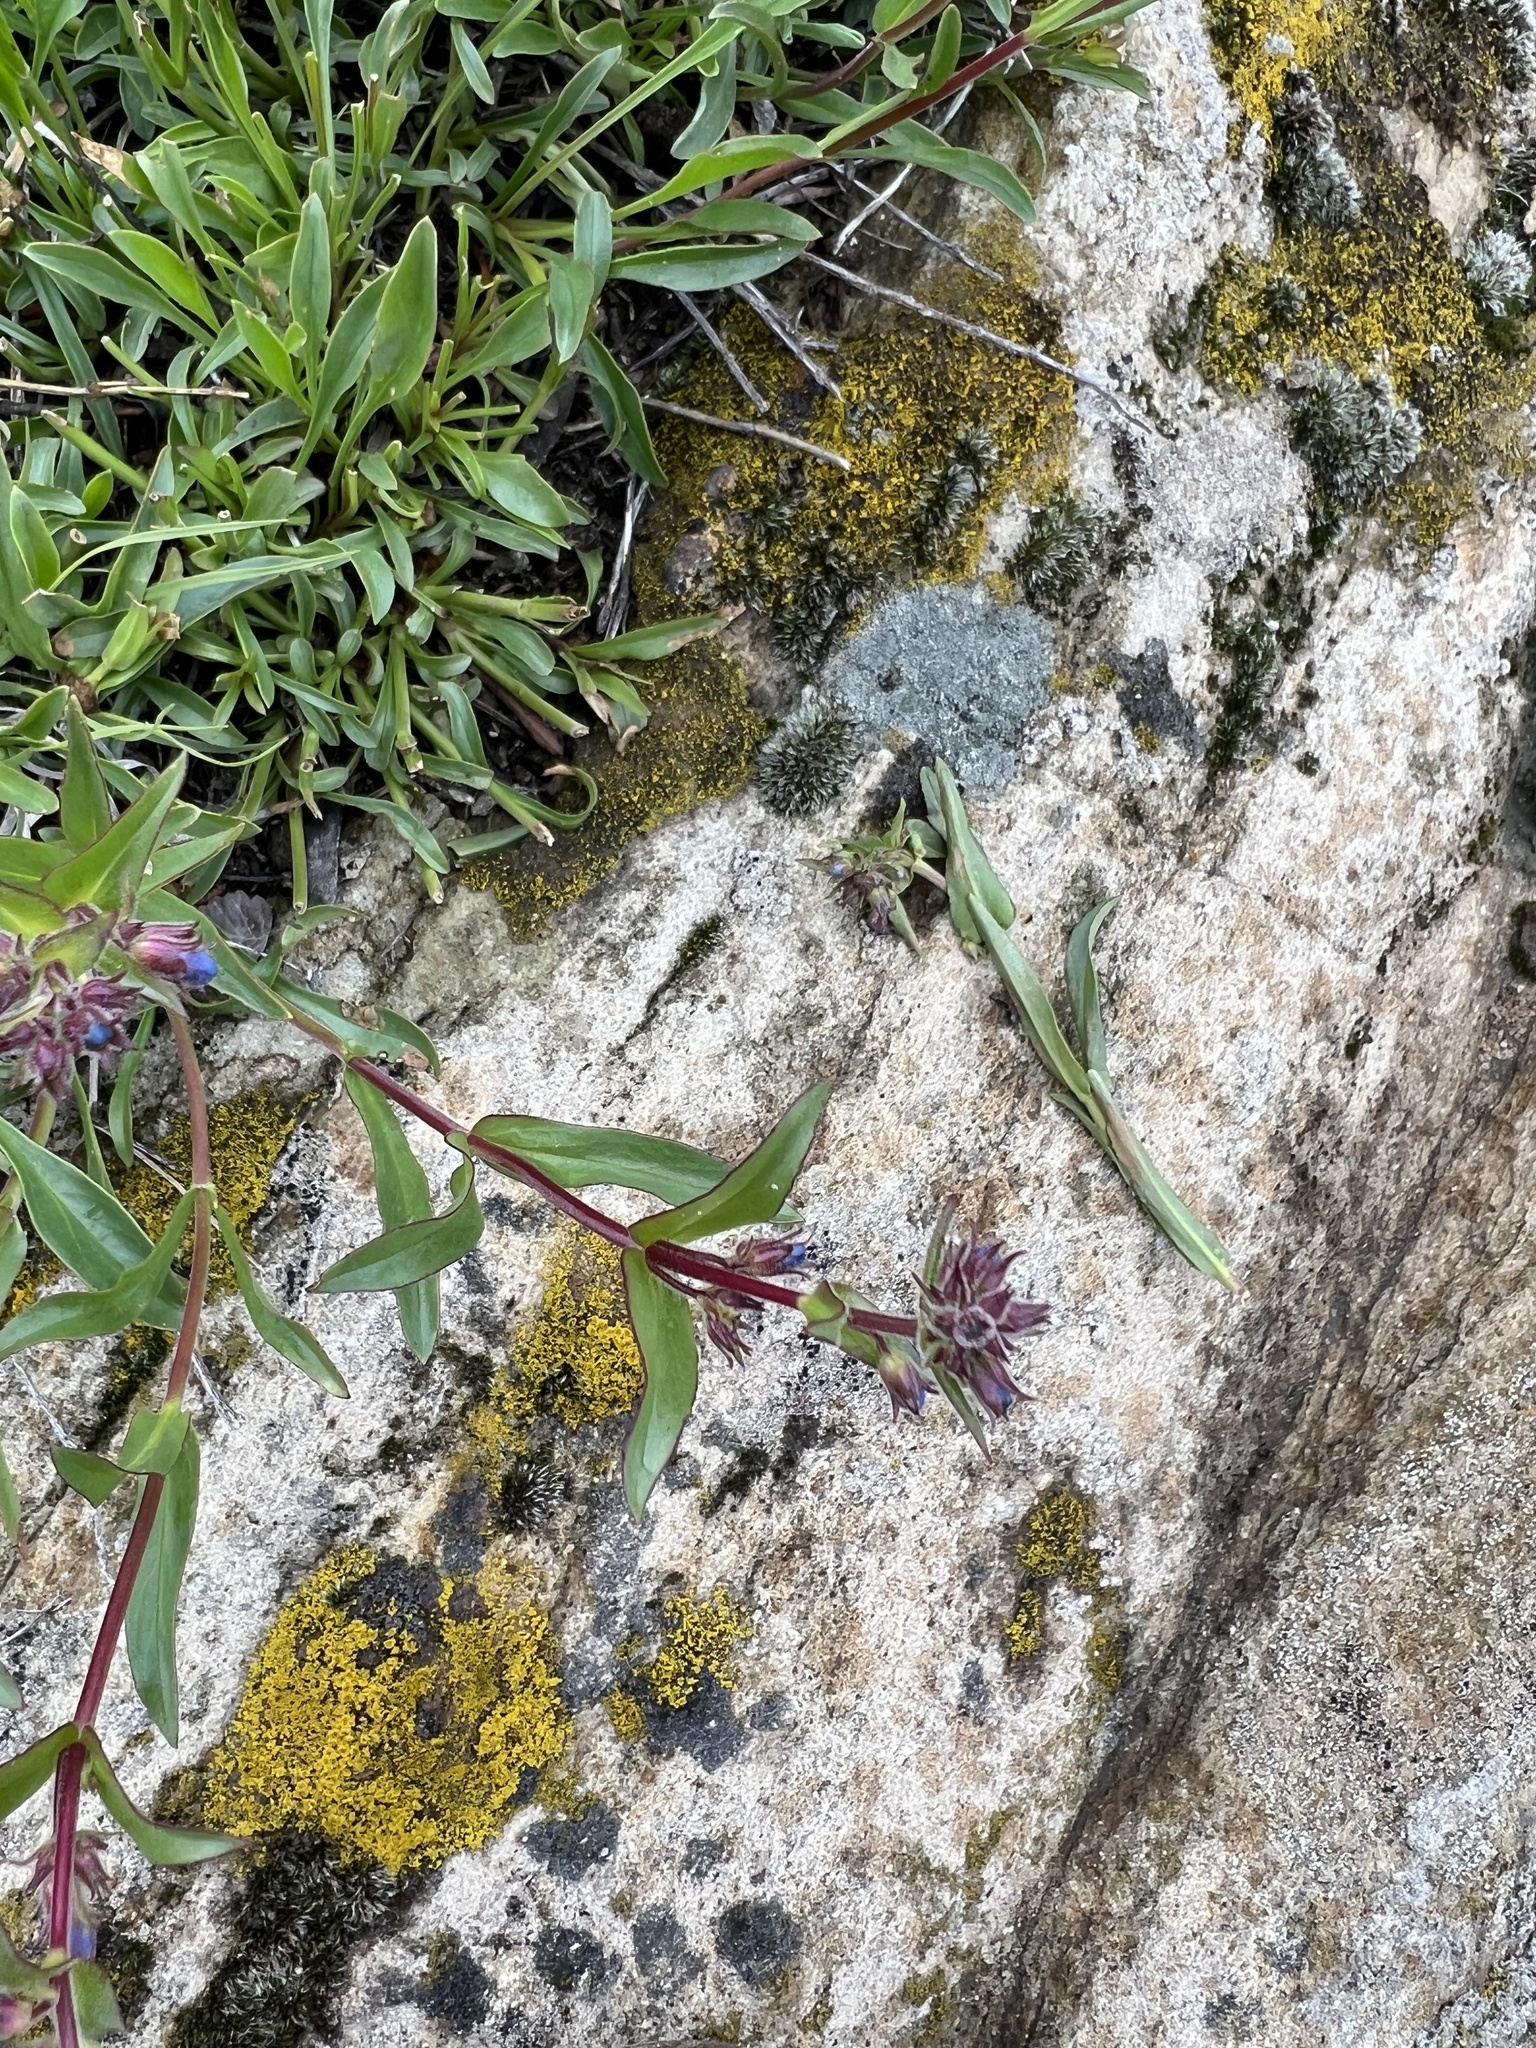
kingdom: Plantae
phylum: Tracheophyta
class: Magnoliopsida
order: Lamiales
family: Plantaginaceae
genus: Penstemon
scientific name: Penstemon virens
